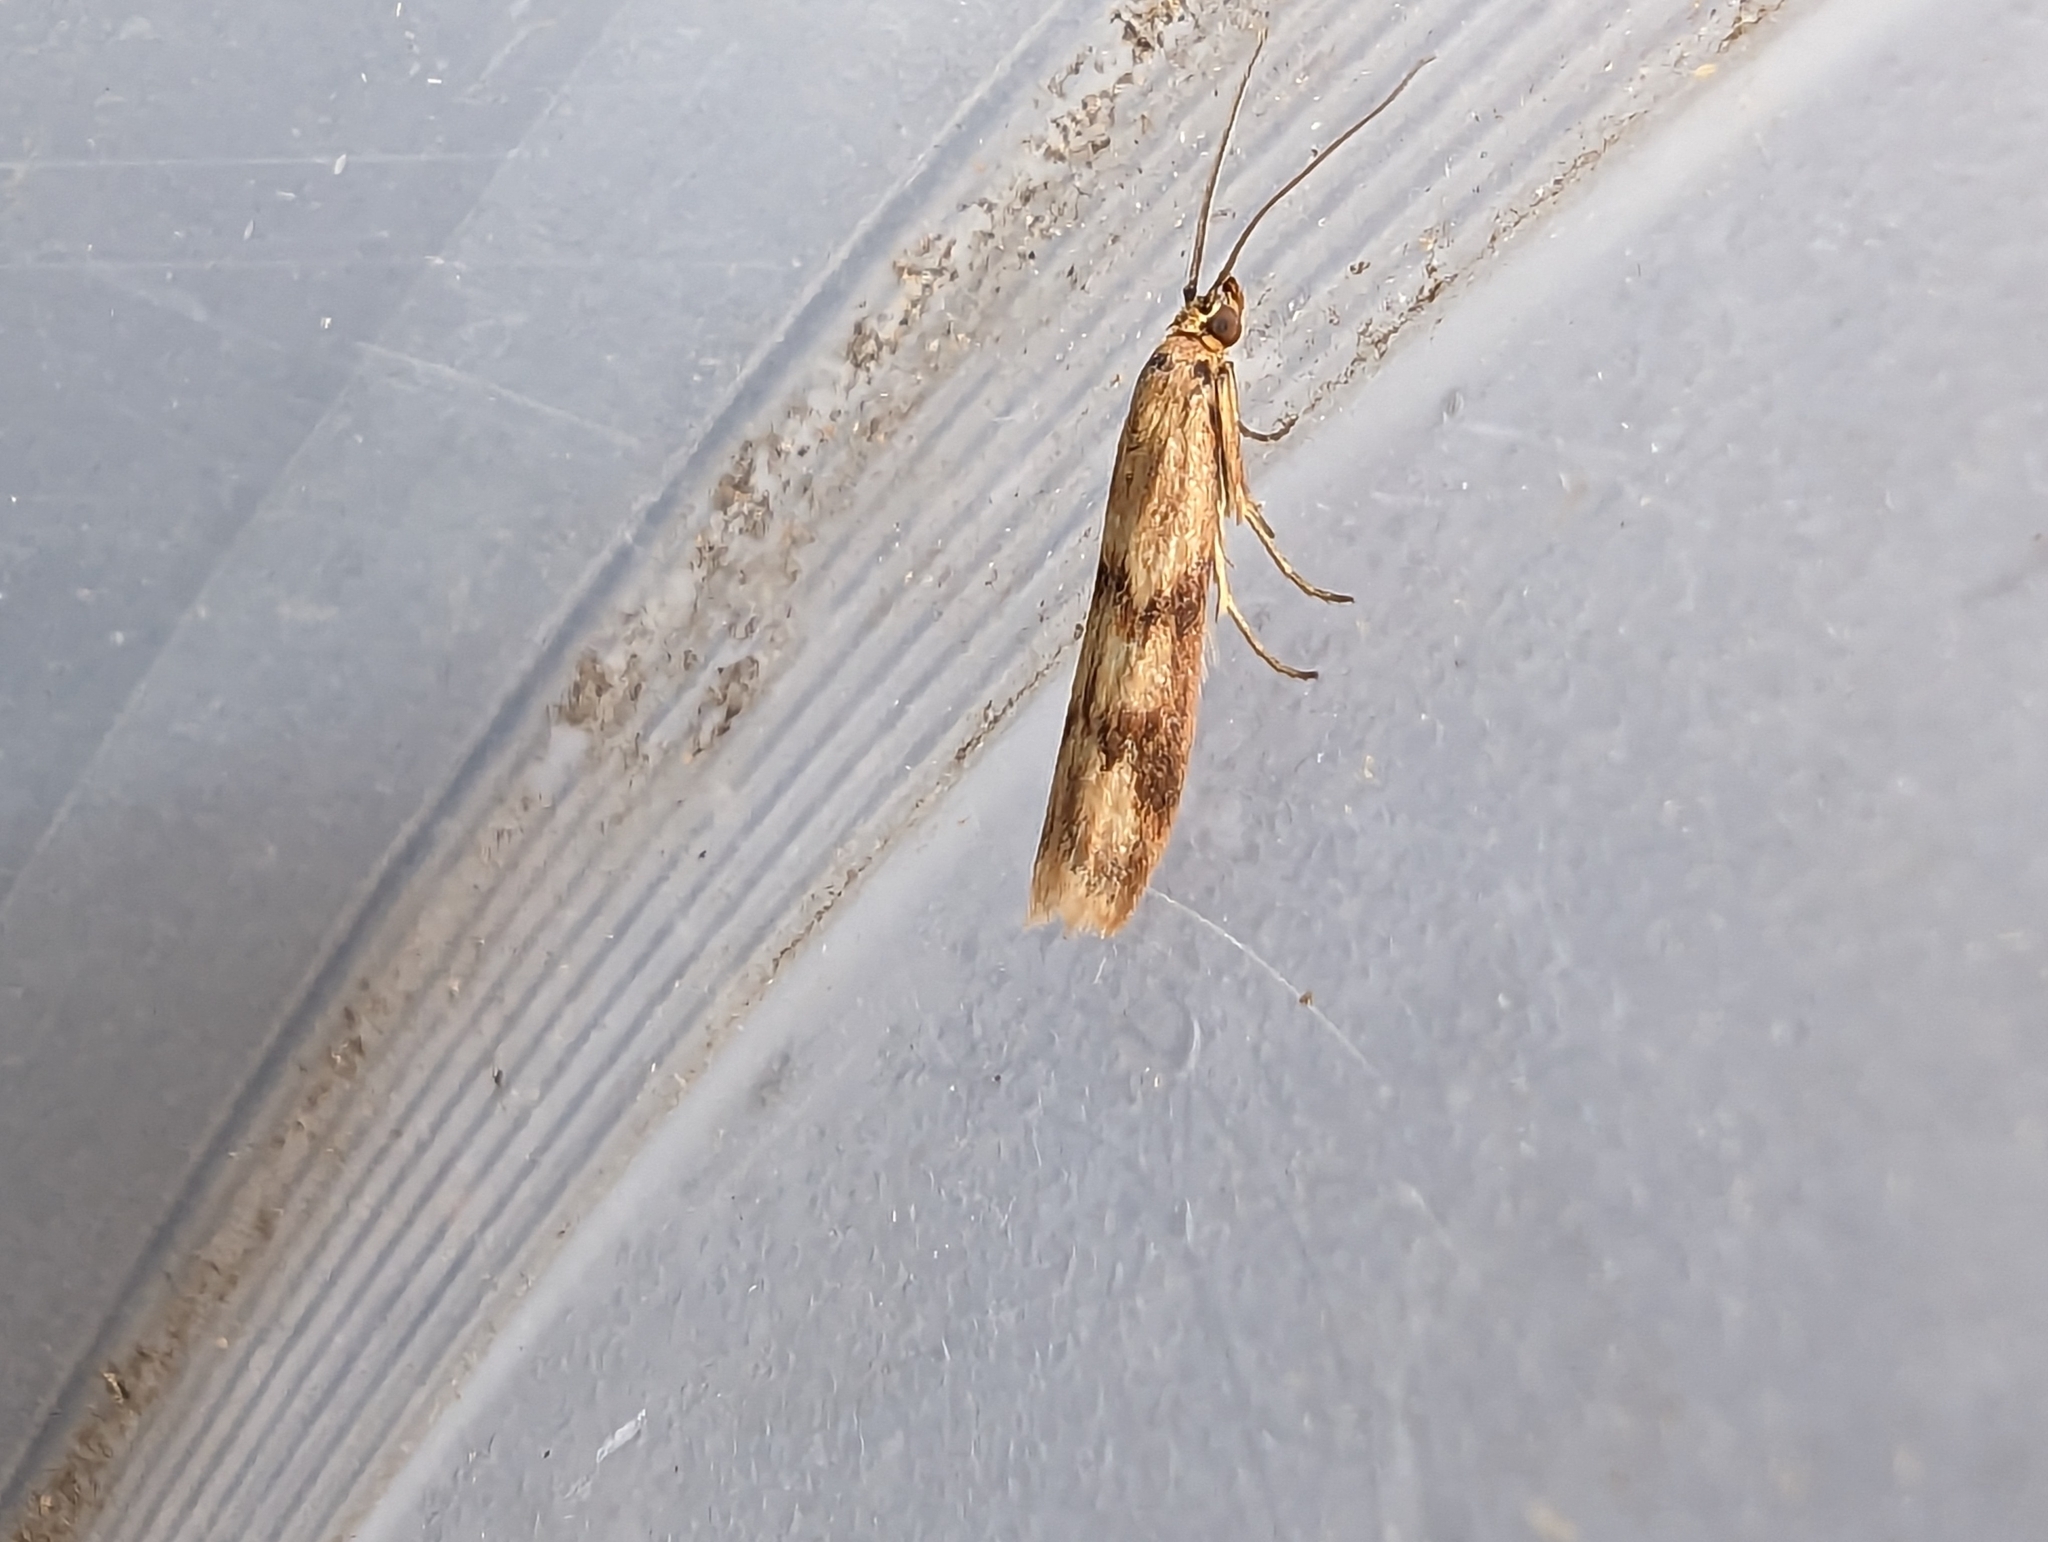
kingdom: Animalia
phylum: Arthropoda
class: Insecta
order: Lepidoptera
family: Pyralidae
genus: Homoeosoma
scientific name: Homoeosoma sinuella
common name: Twin-barred knot-horn
